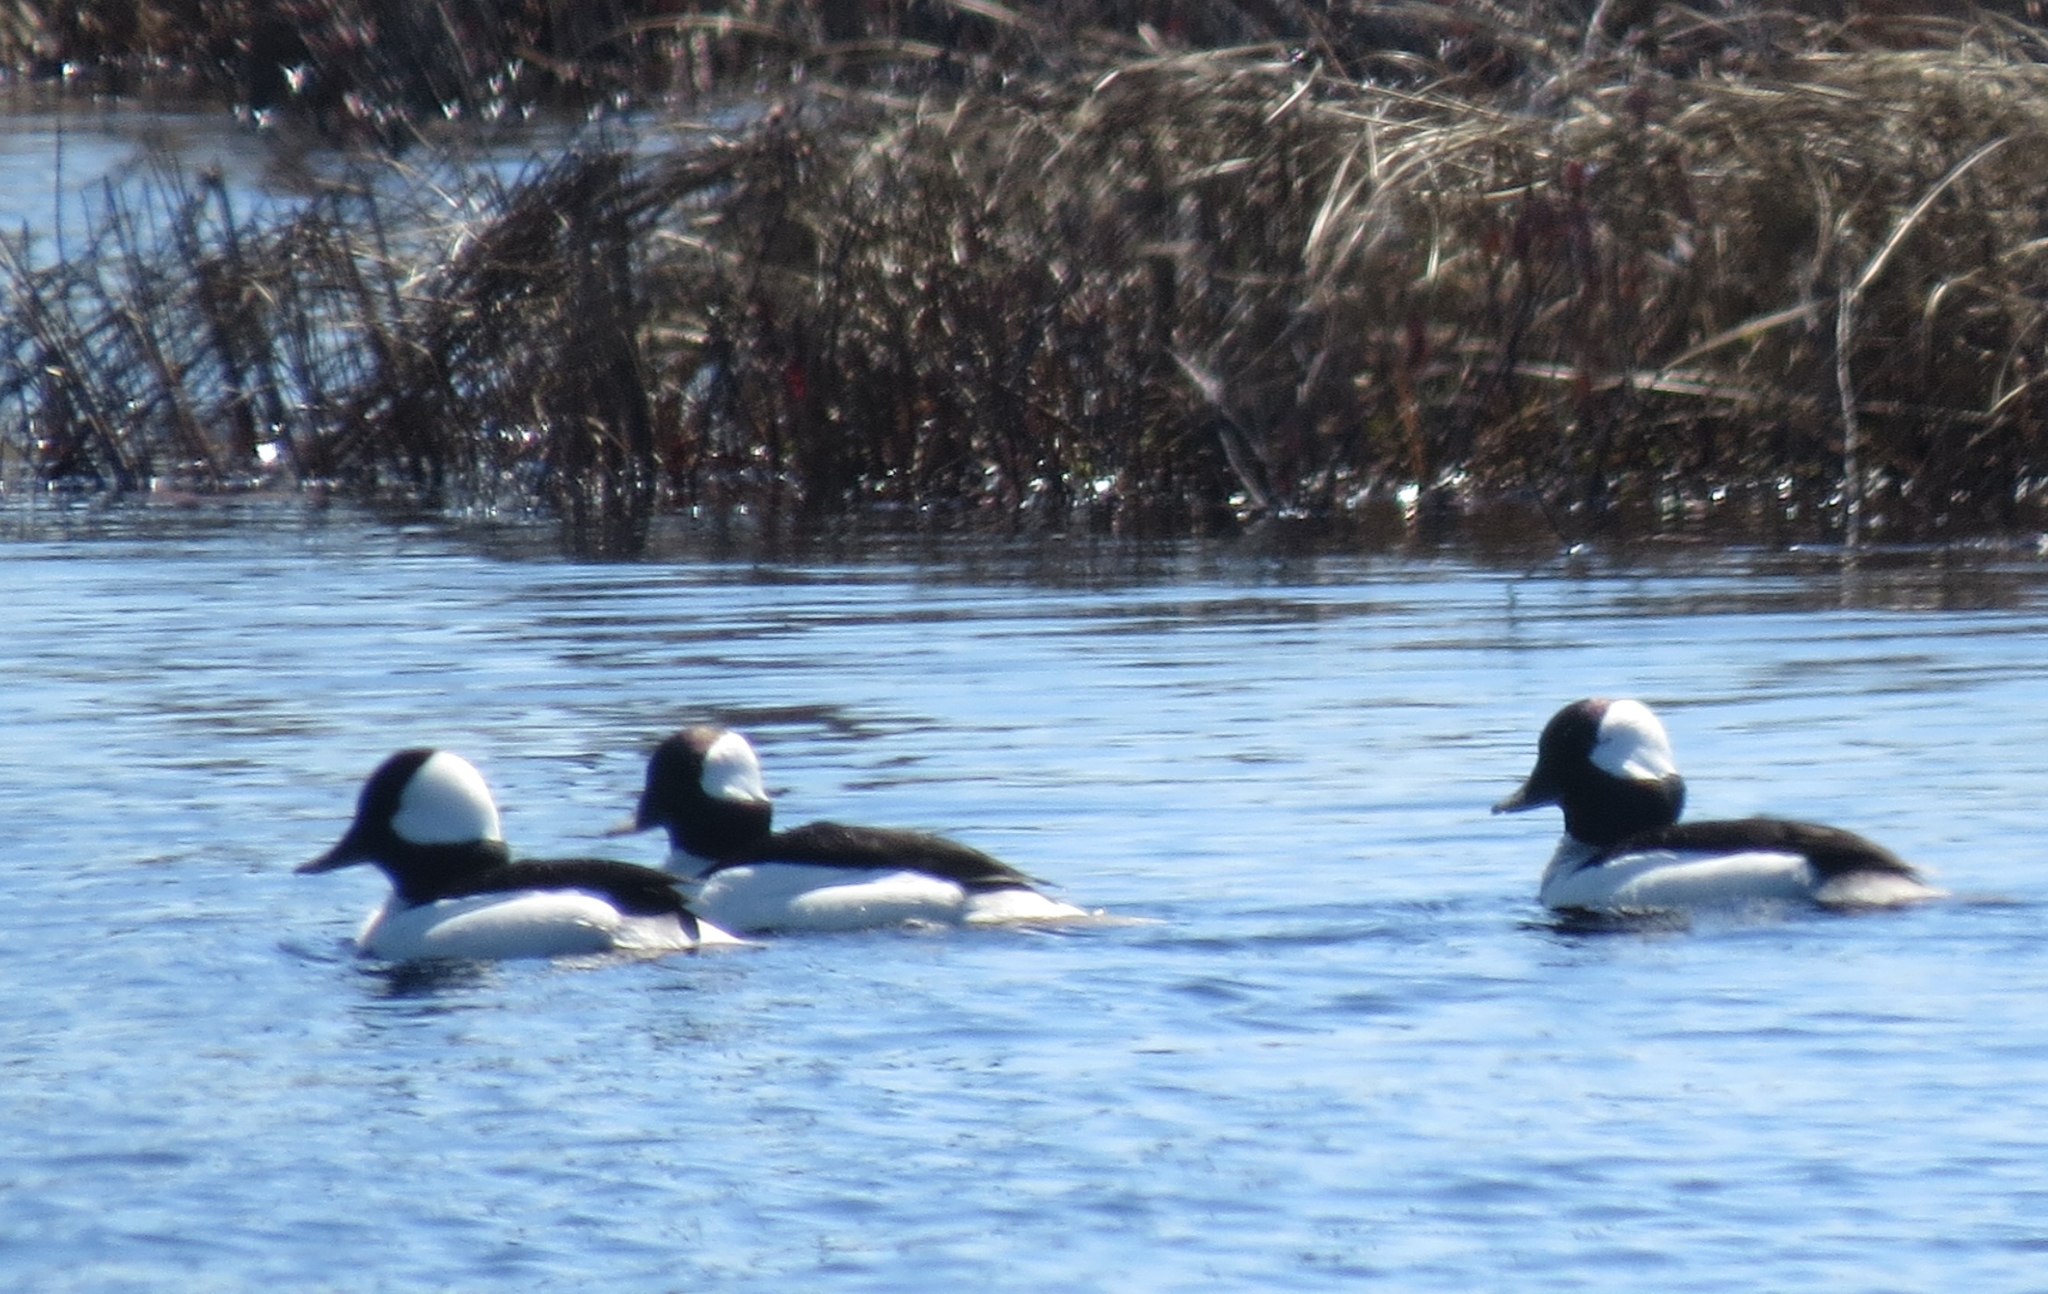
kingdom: Animalia
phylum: Chordata
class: Aves
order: Anseriformes
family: Anatidae
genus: Bucephala
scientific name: Bucephala albeola
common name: Bufflehead
